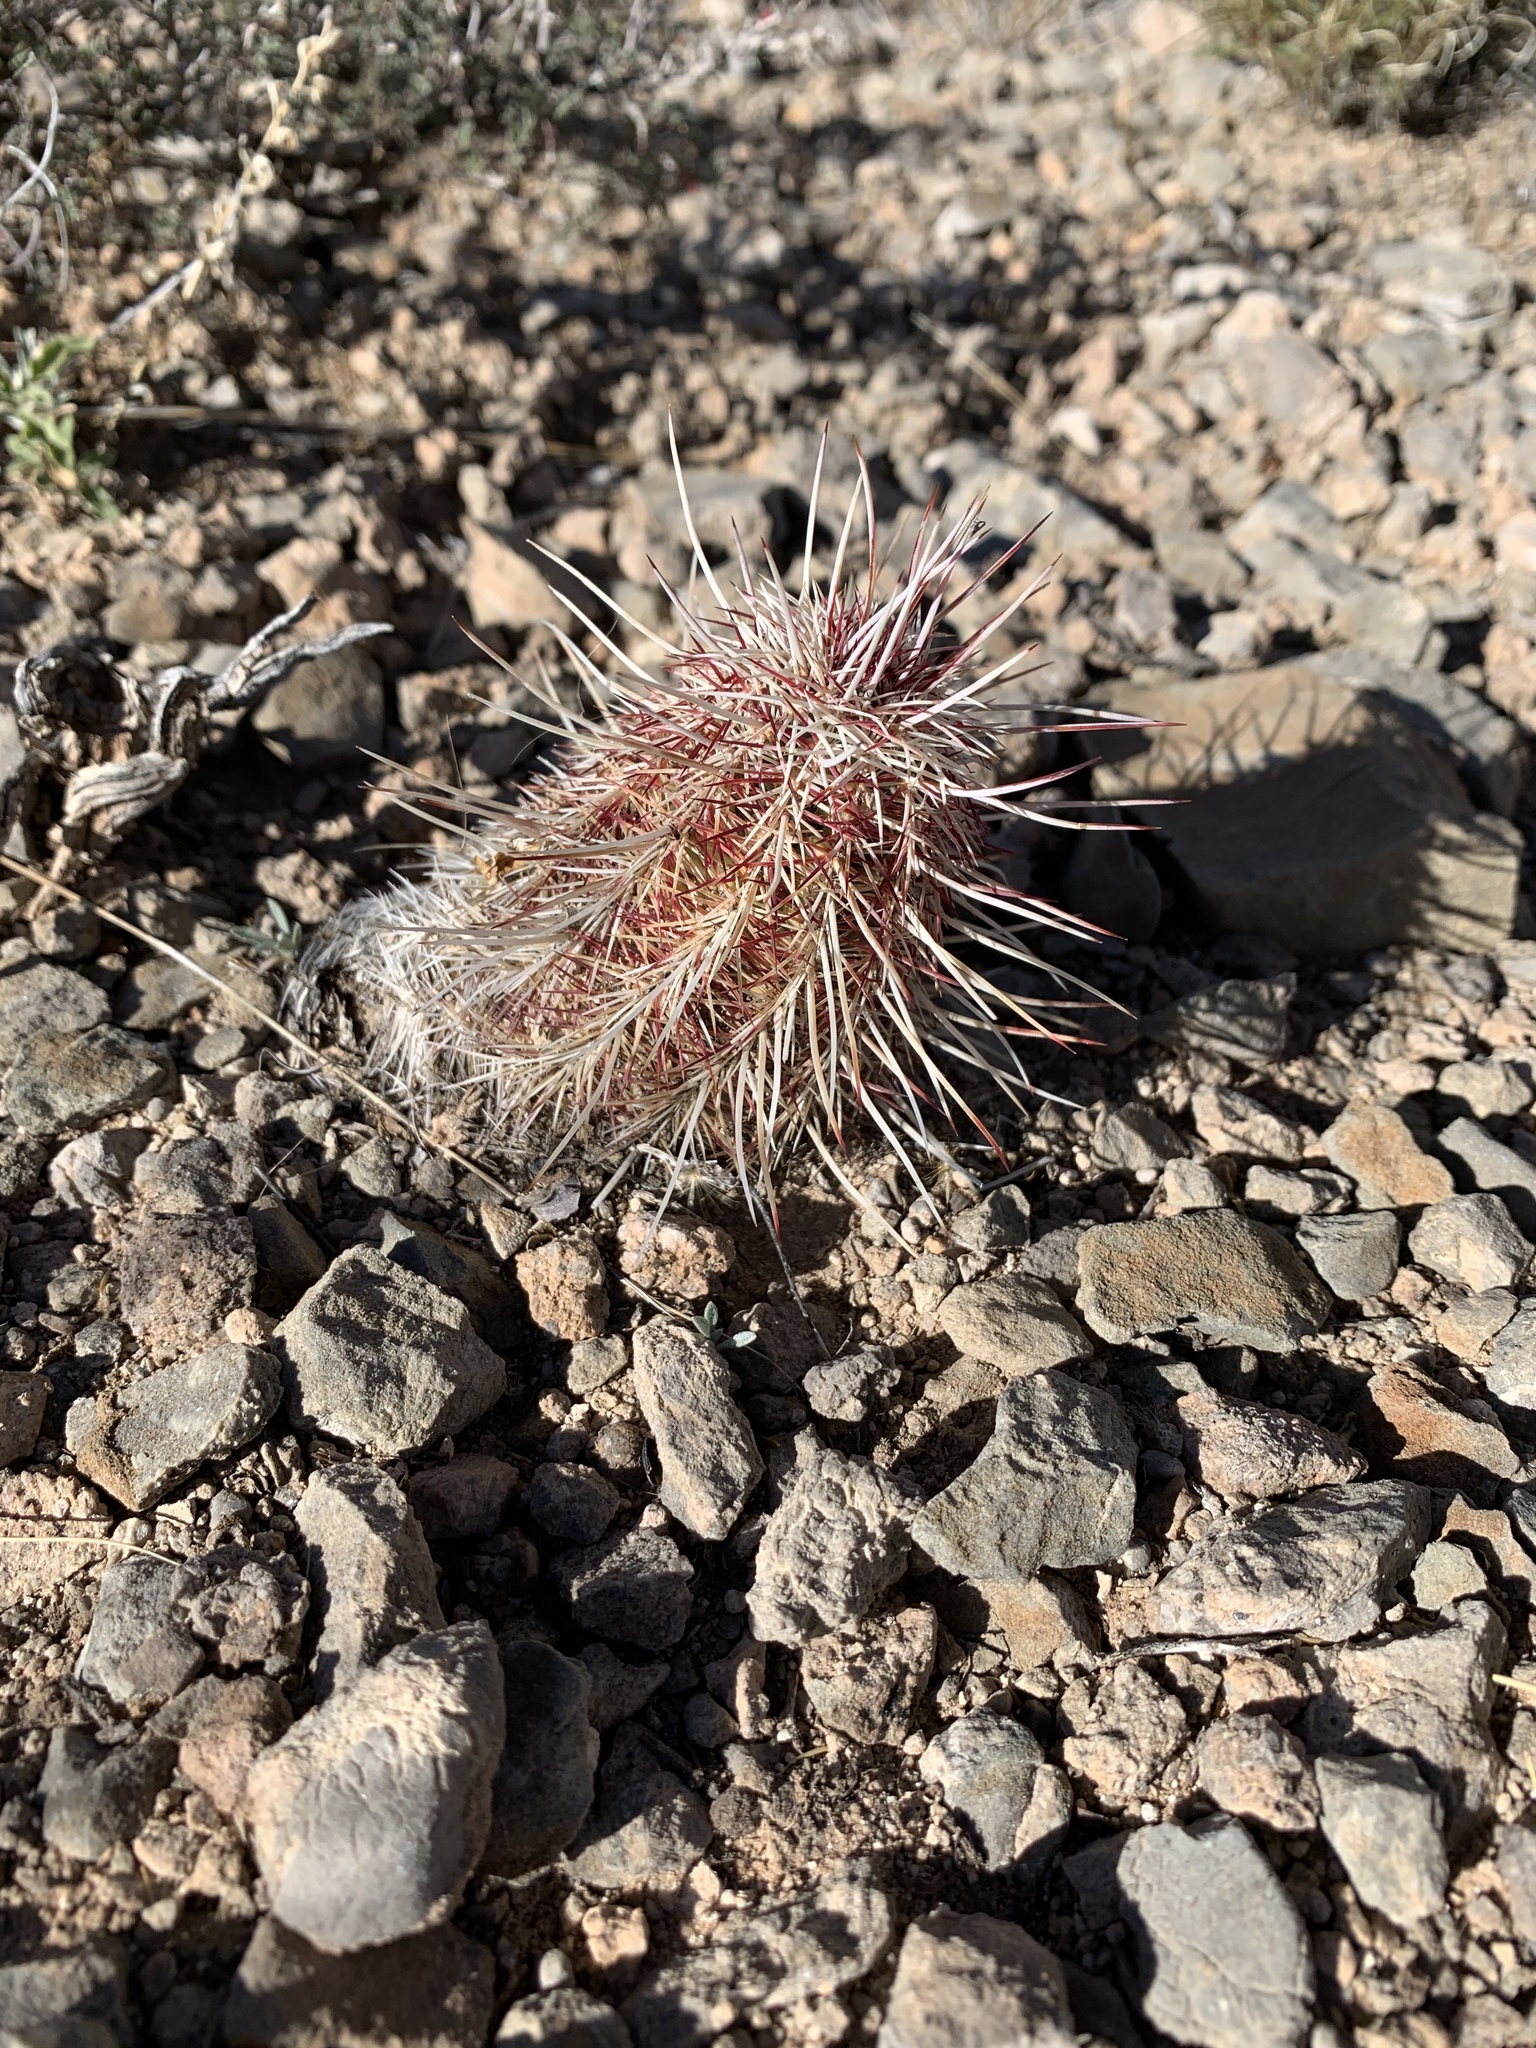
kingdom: Plantae
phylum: Tracheophyta
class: Magnoliopsida
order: Caryophyllales
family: Cactaceae
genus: Echinocereus
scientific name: Echinocereus viridiflorus
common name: Nylon hedgehog cactus
